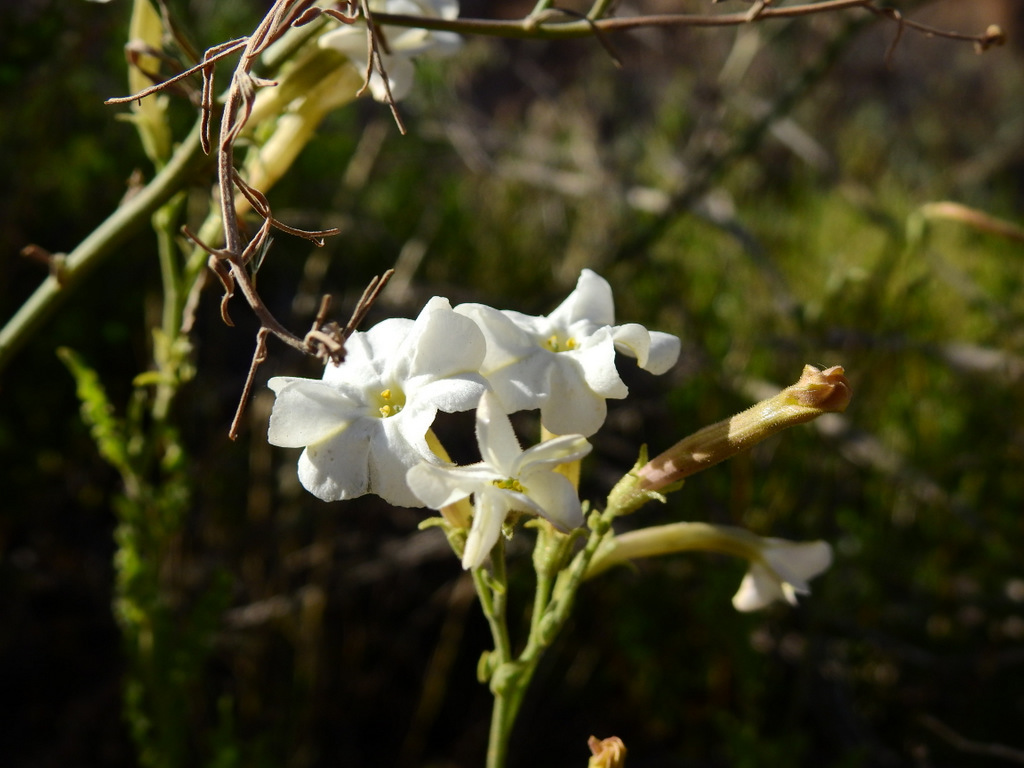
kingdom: Plantae
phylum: Tracheophyta
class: Magnoliopsida
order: Solanales
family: Solanaceae
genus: Nicotiana
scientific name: Nicotiana noctiflora
